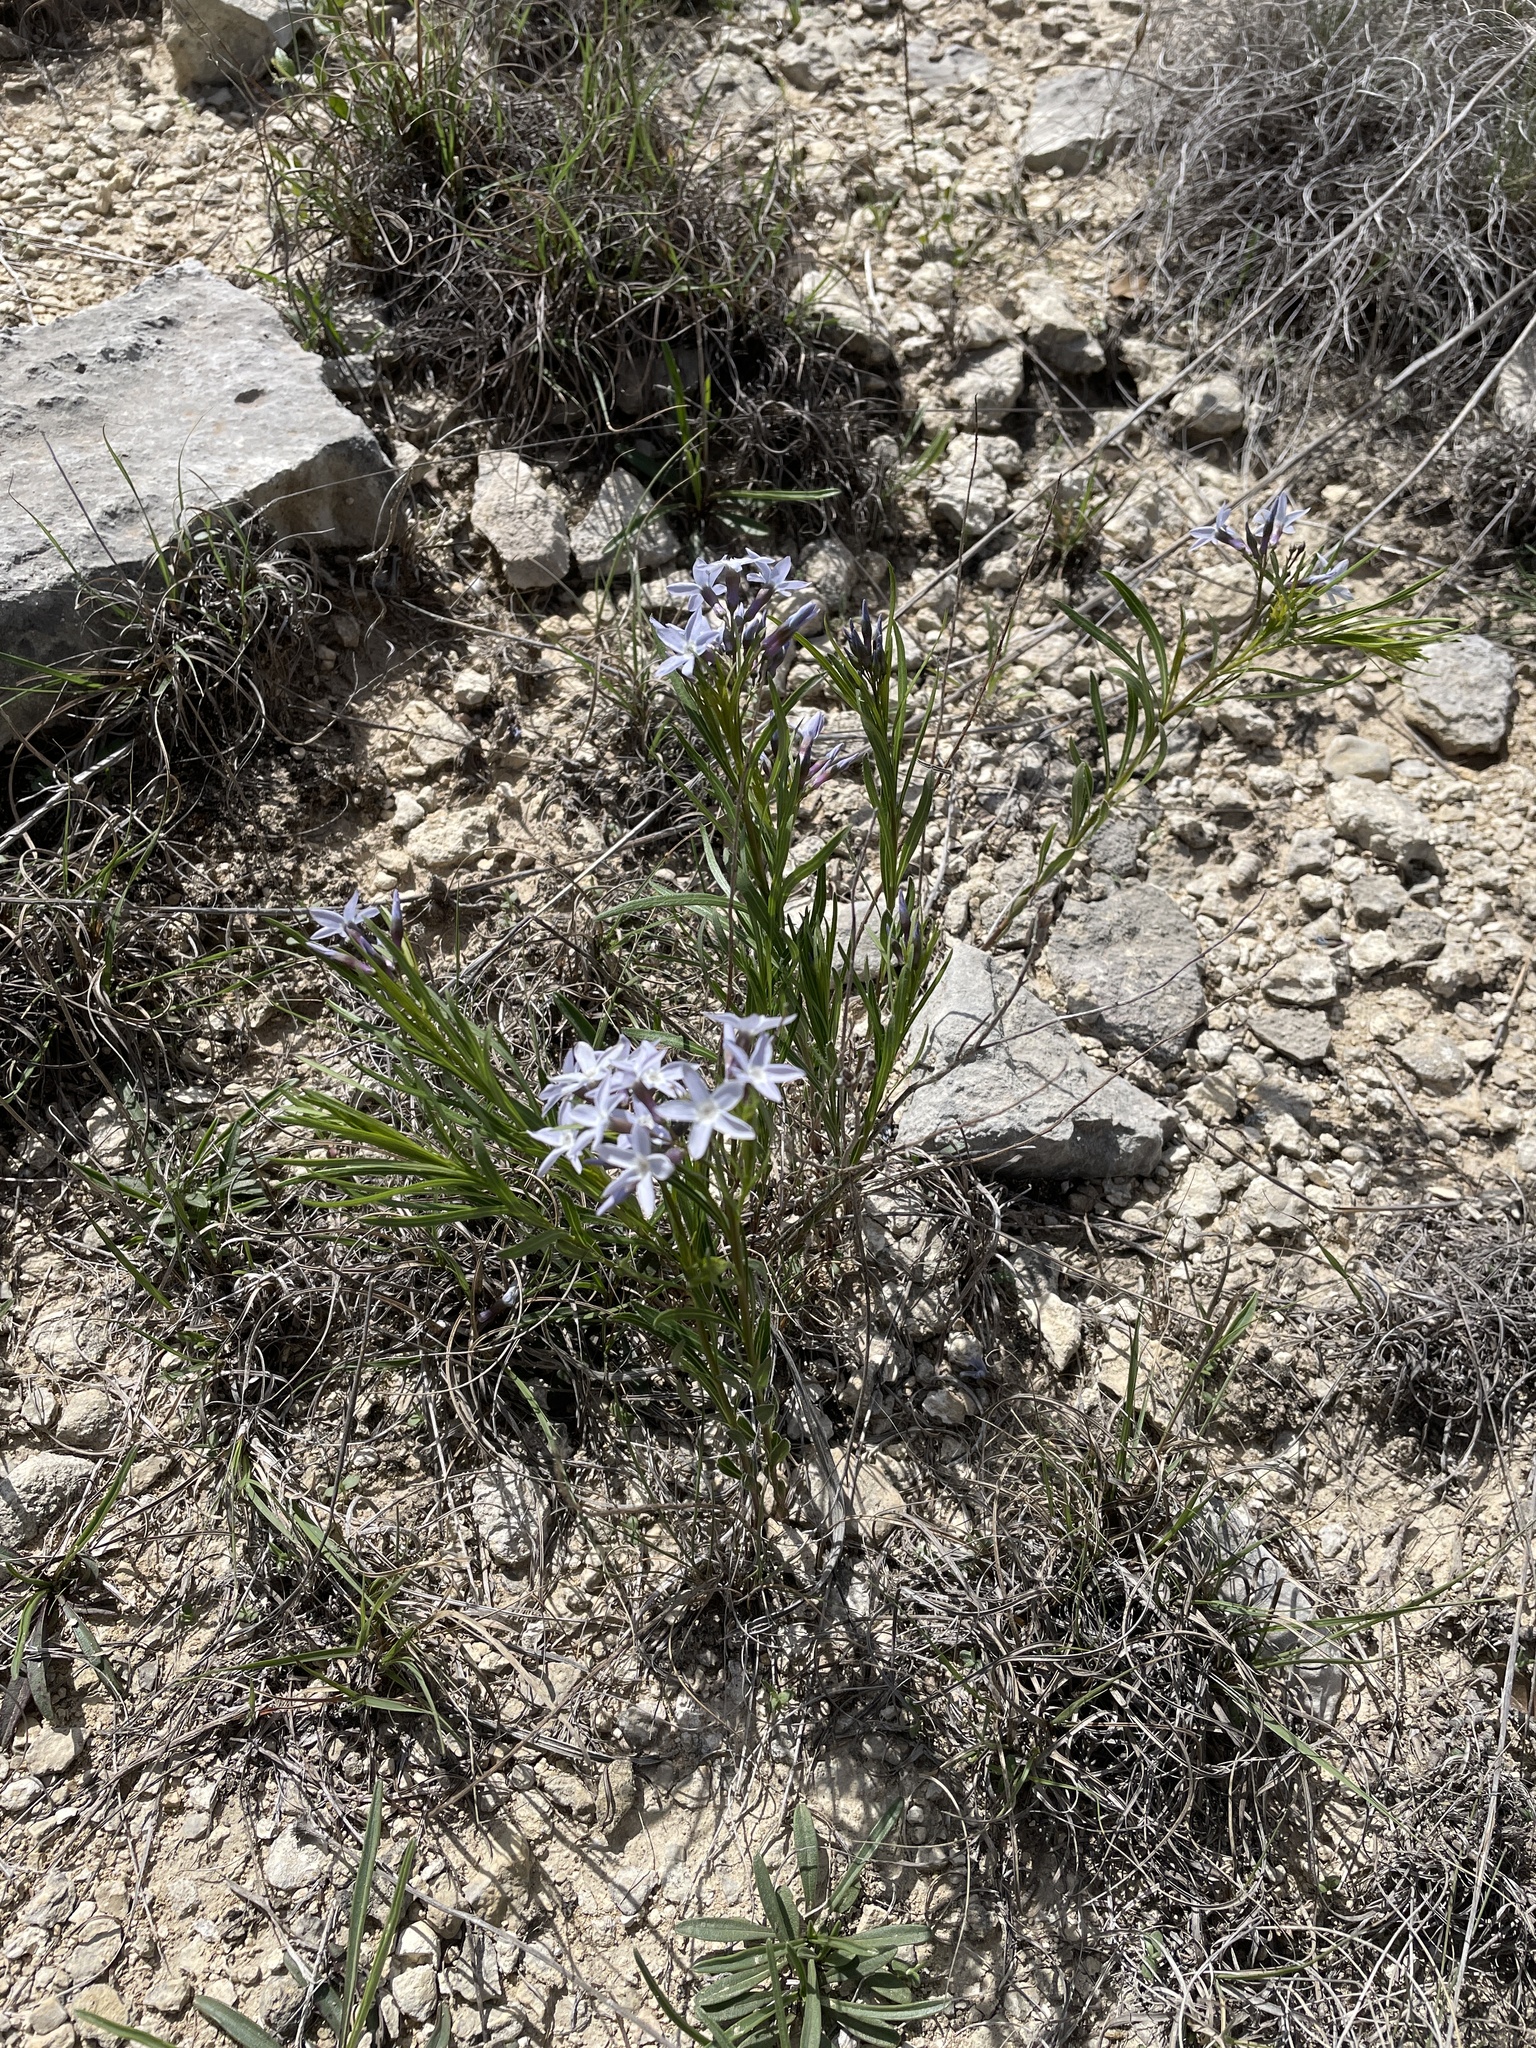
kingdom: Plantae
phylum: Tracheophyta
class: Magnoliopsida
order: Gentianales
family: Apocynaceae
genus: Amsonia
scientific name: Amsonia ciliata
